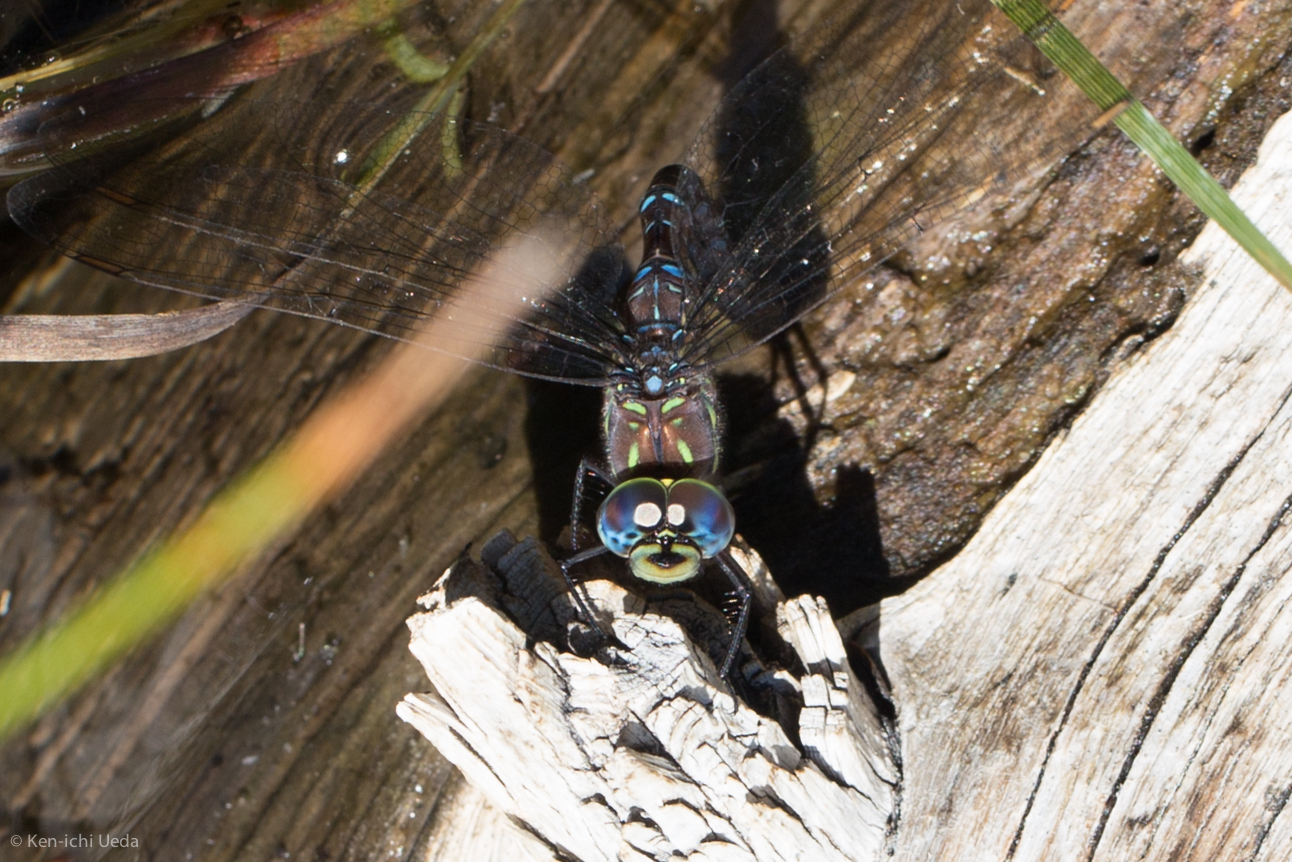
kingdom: Animalia
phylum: Arthropoda
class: Insecta
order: Odonata
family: Aeshnidae
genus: Aeshna
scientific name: Aeshna umbrosa
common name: Shadow darner
